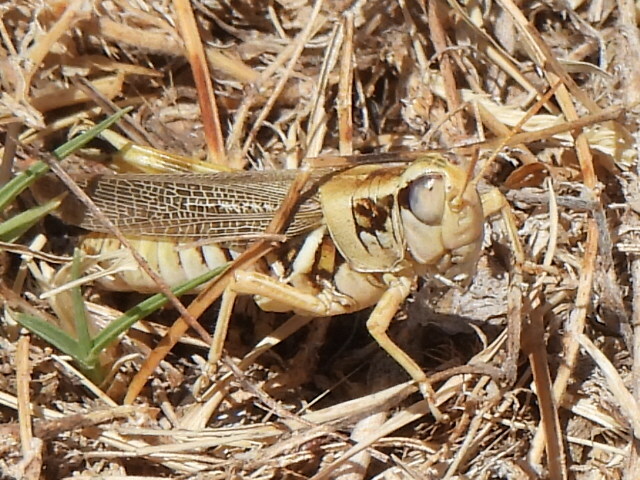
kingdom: Animalia
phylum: Arthropoda
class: Insecta
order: Orthoptera
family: Acrididae
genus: Melanoplus
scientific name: Melanoplus femurrubrum
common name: Red-legged grasshopper
